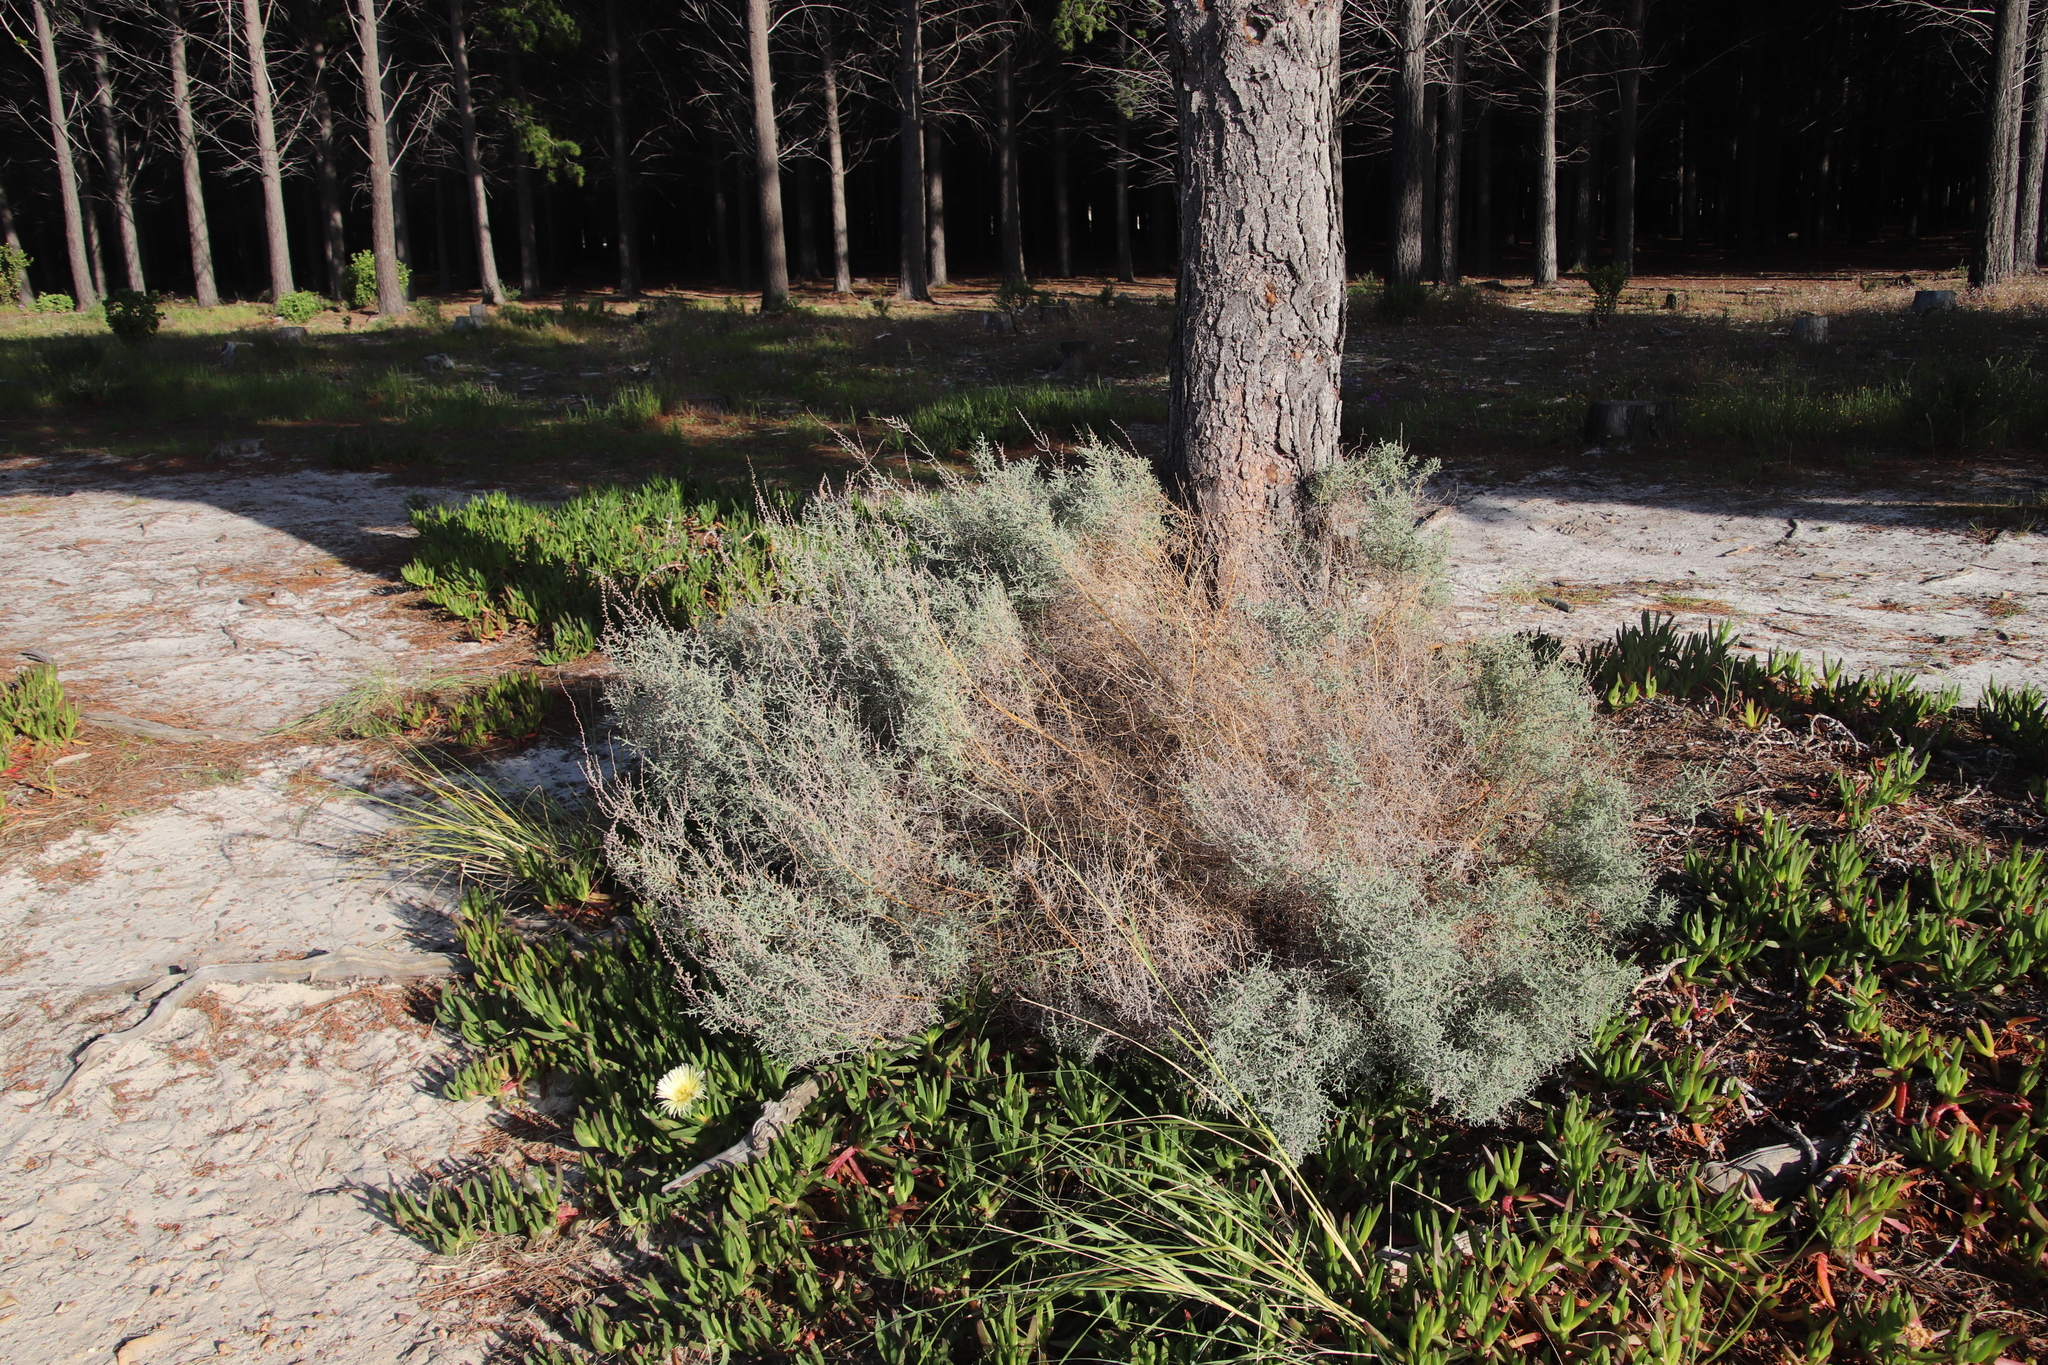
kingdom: Plantae
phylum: Tracheophyta
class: Magnoliopsida
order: Asterales
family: Asteraceae
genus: Seriphium
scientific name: Seriphium plumosum
